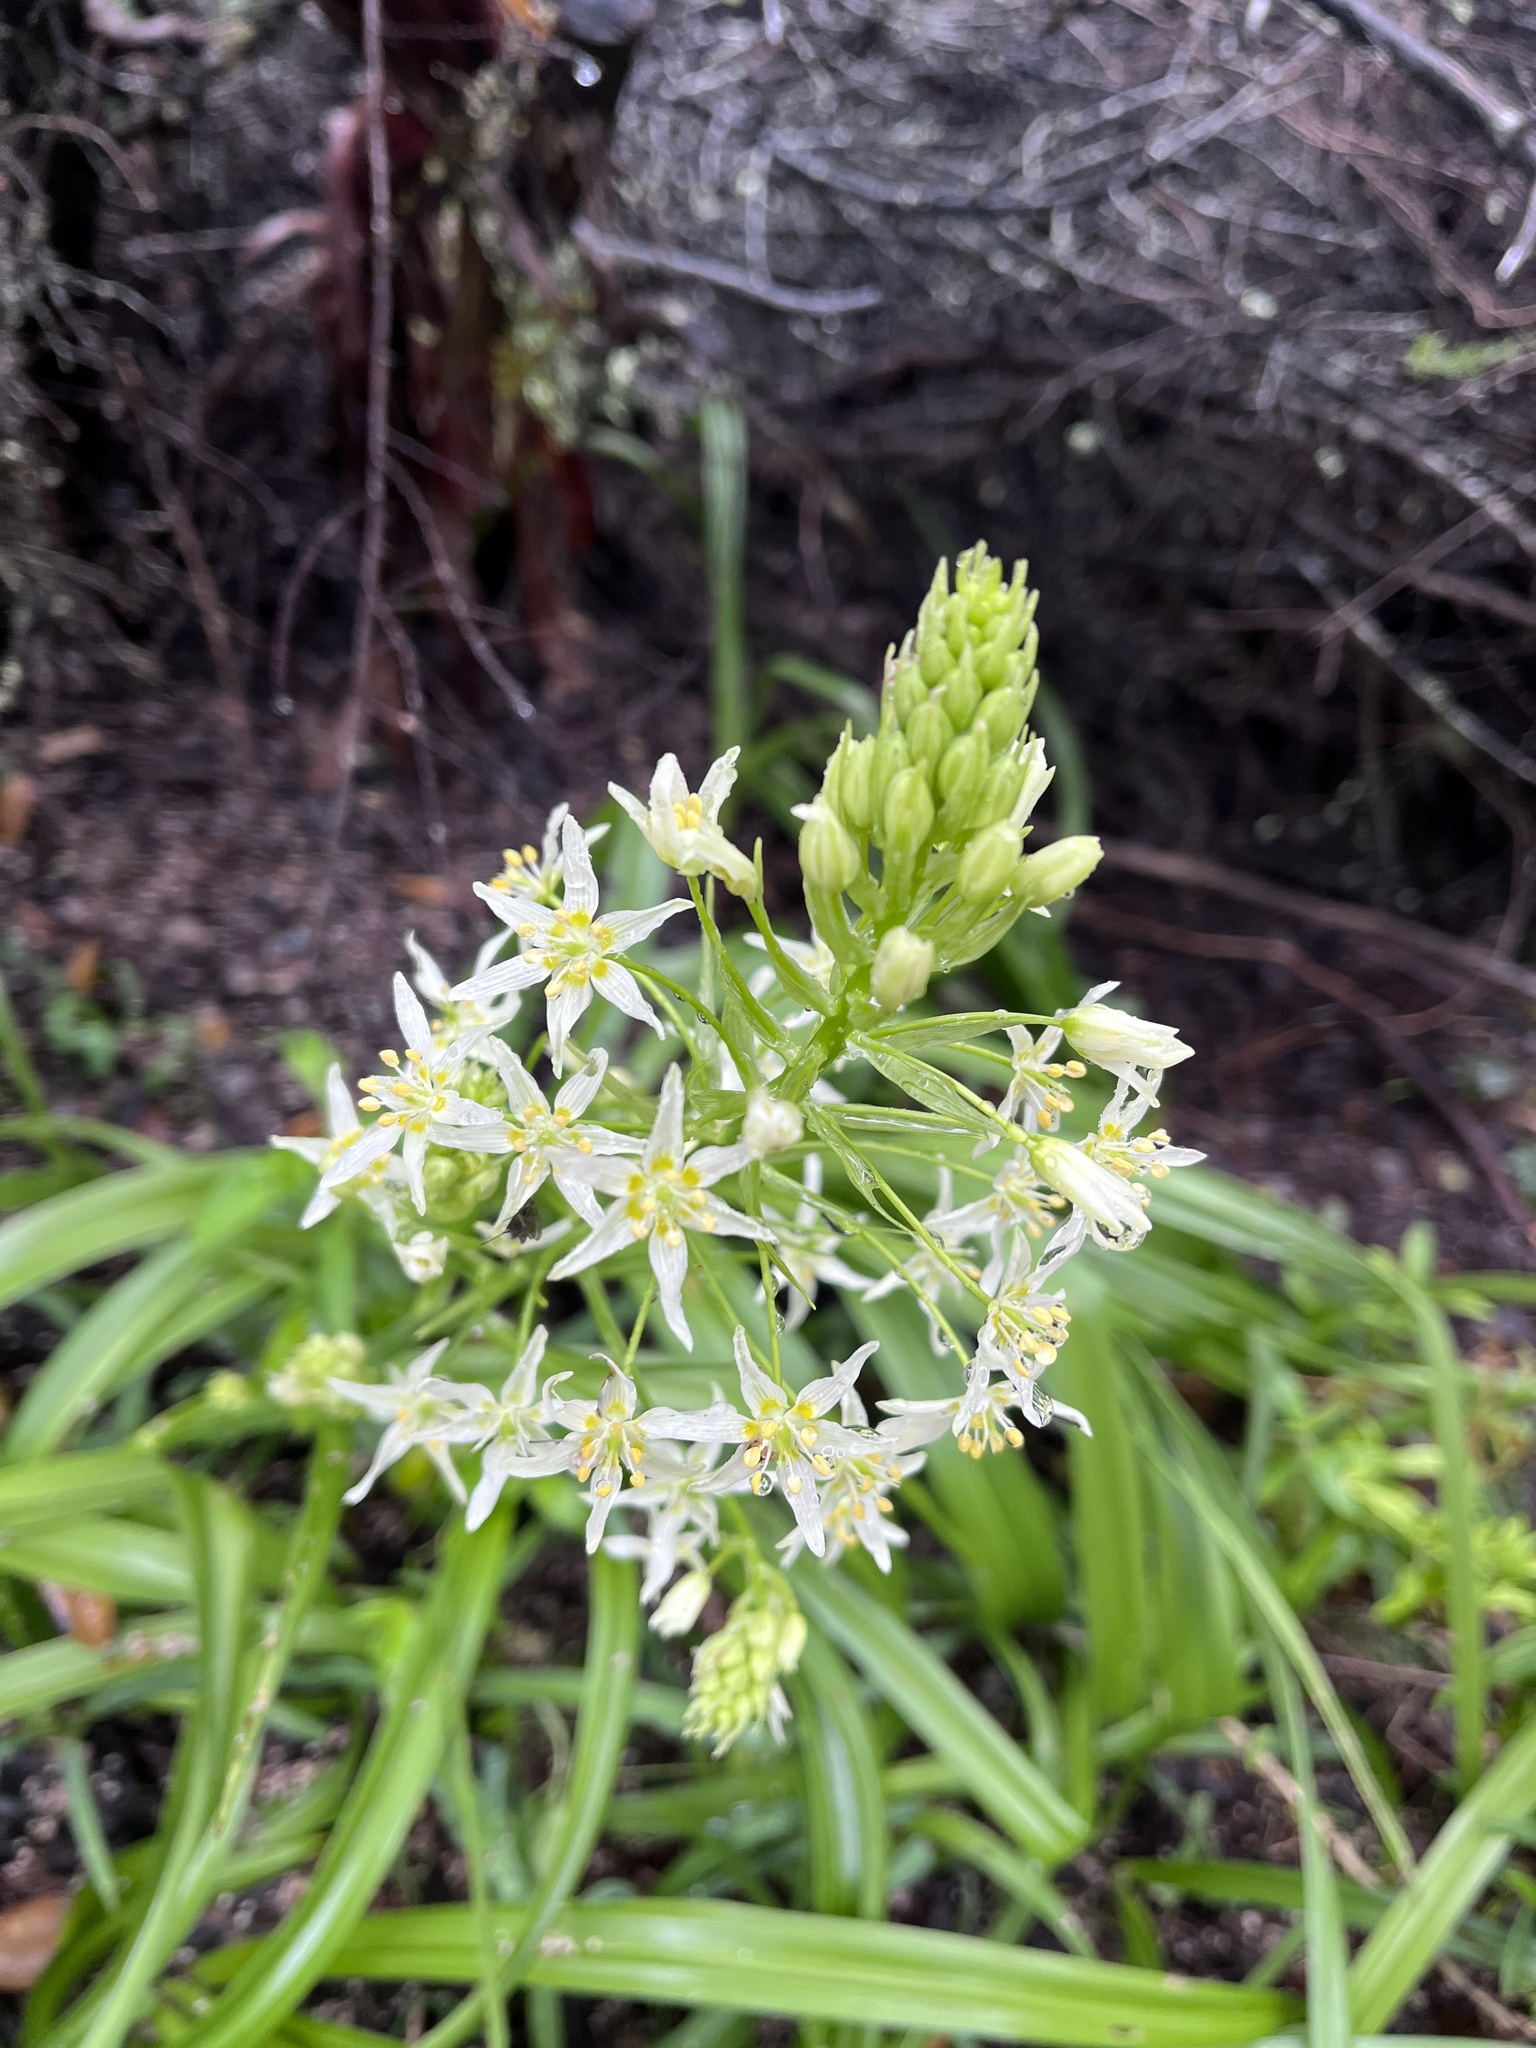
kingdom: Plantae
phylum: Tracheophyta
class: Liliopsida
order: Liliales
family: Melanthiaceae
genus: Toxicoscordion
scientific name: Toxicoscordion fremontii
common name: Fremont's death camas
